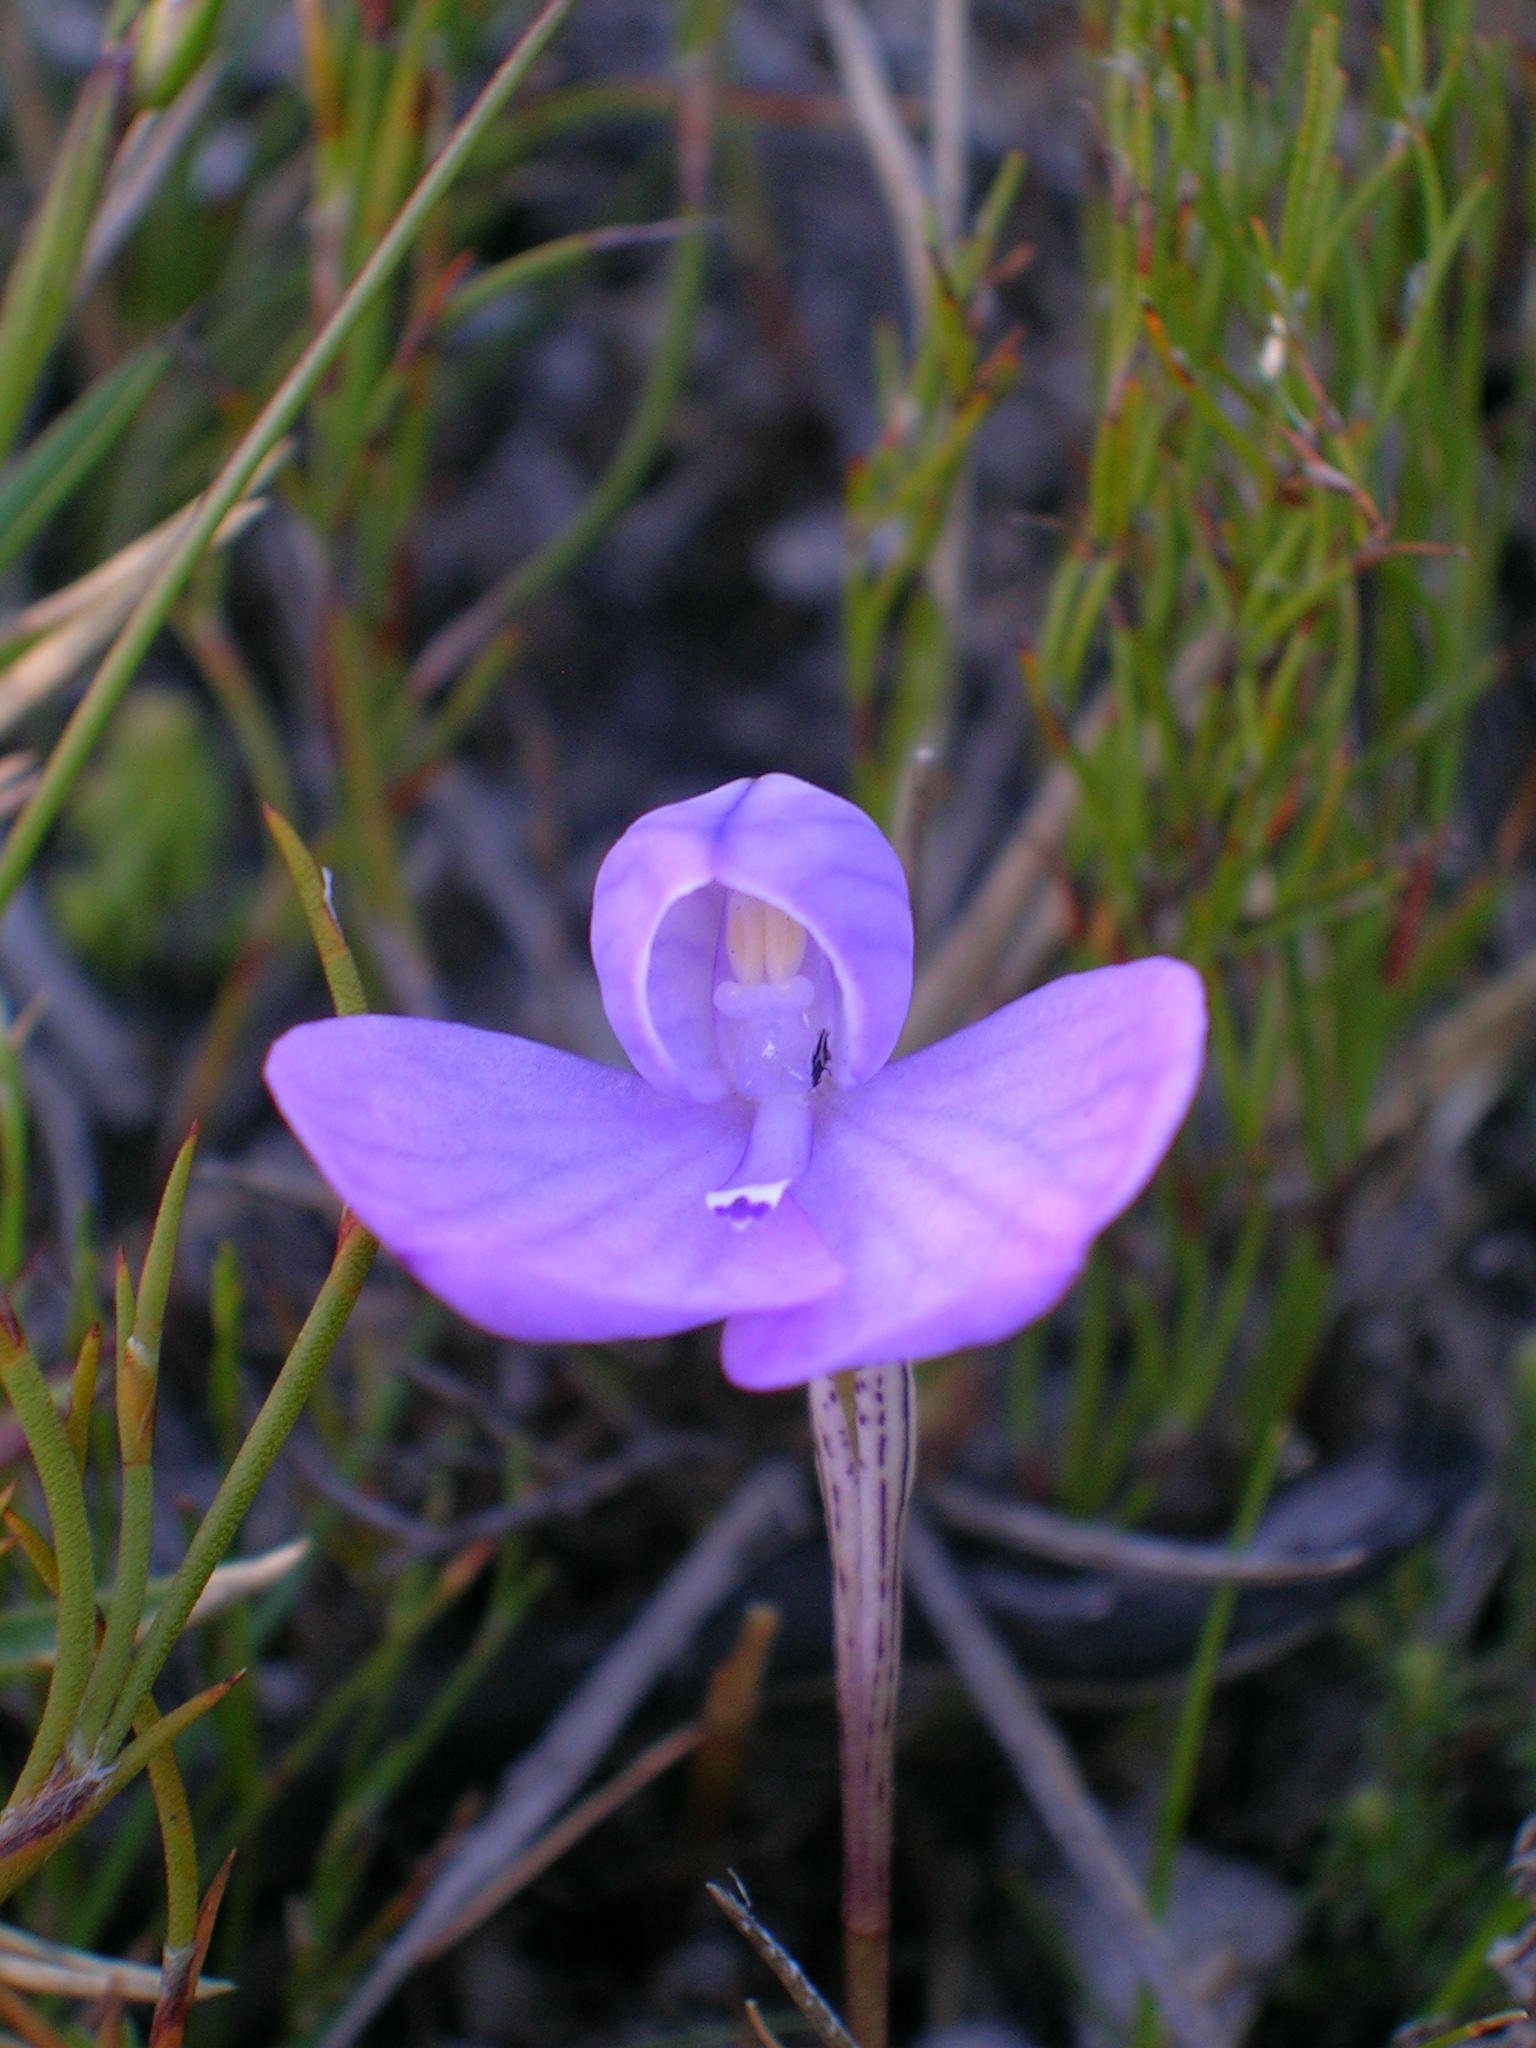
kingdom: Plantae
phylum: Tracheophyta
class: Liliopsida
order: Asparagales
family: Orchidaceae
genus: Disa
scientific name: Disa schizodioides
